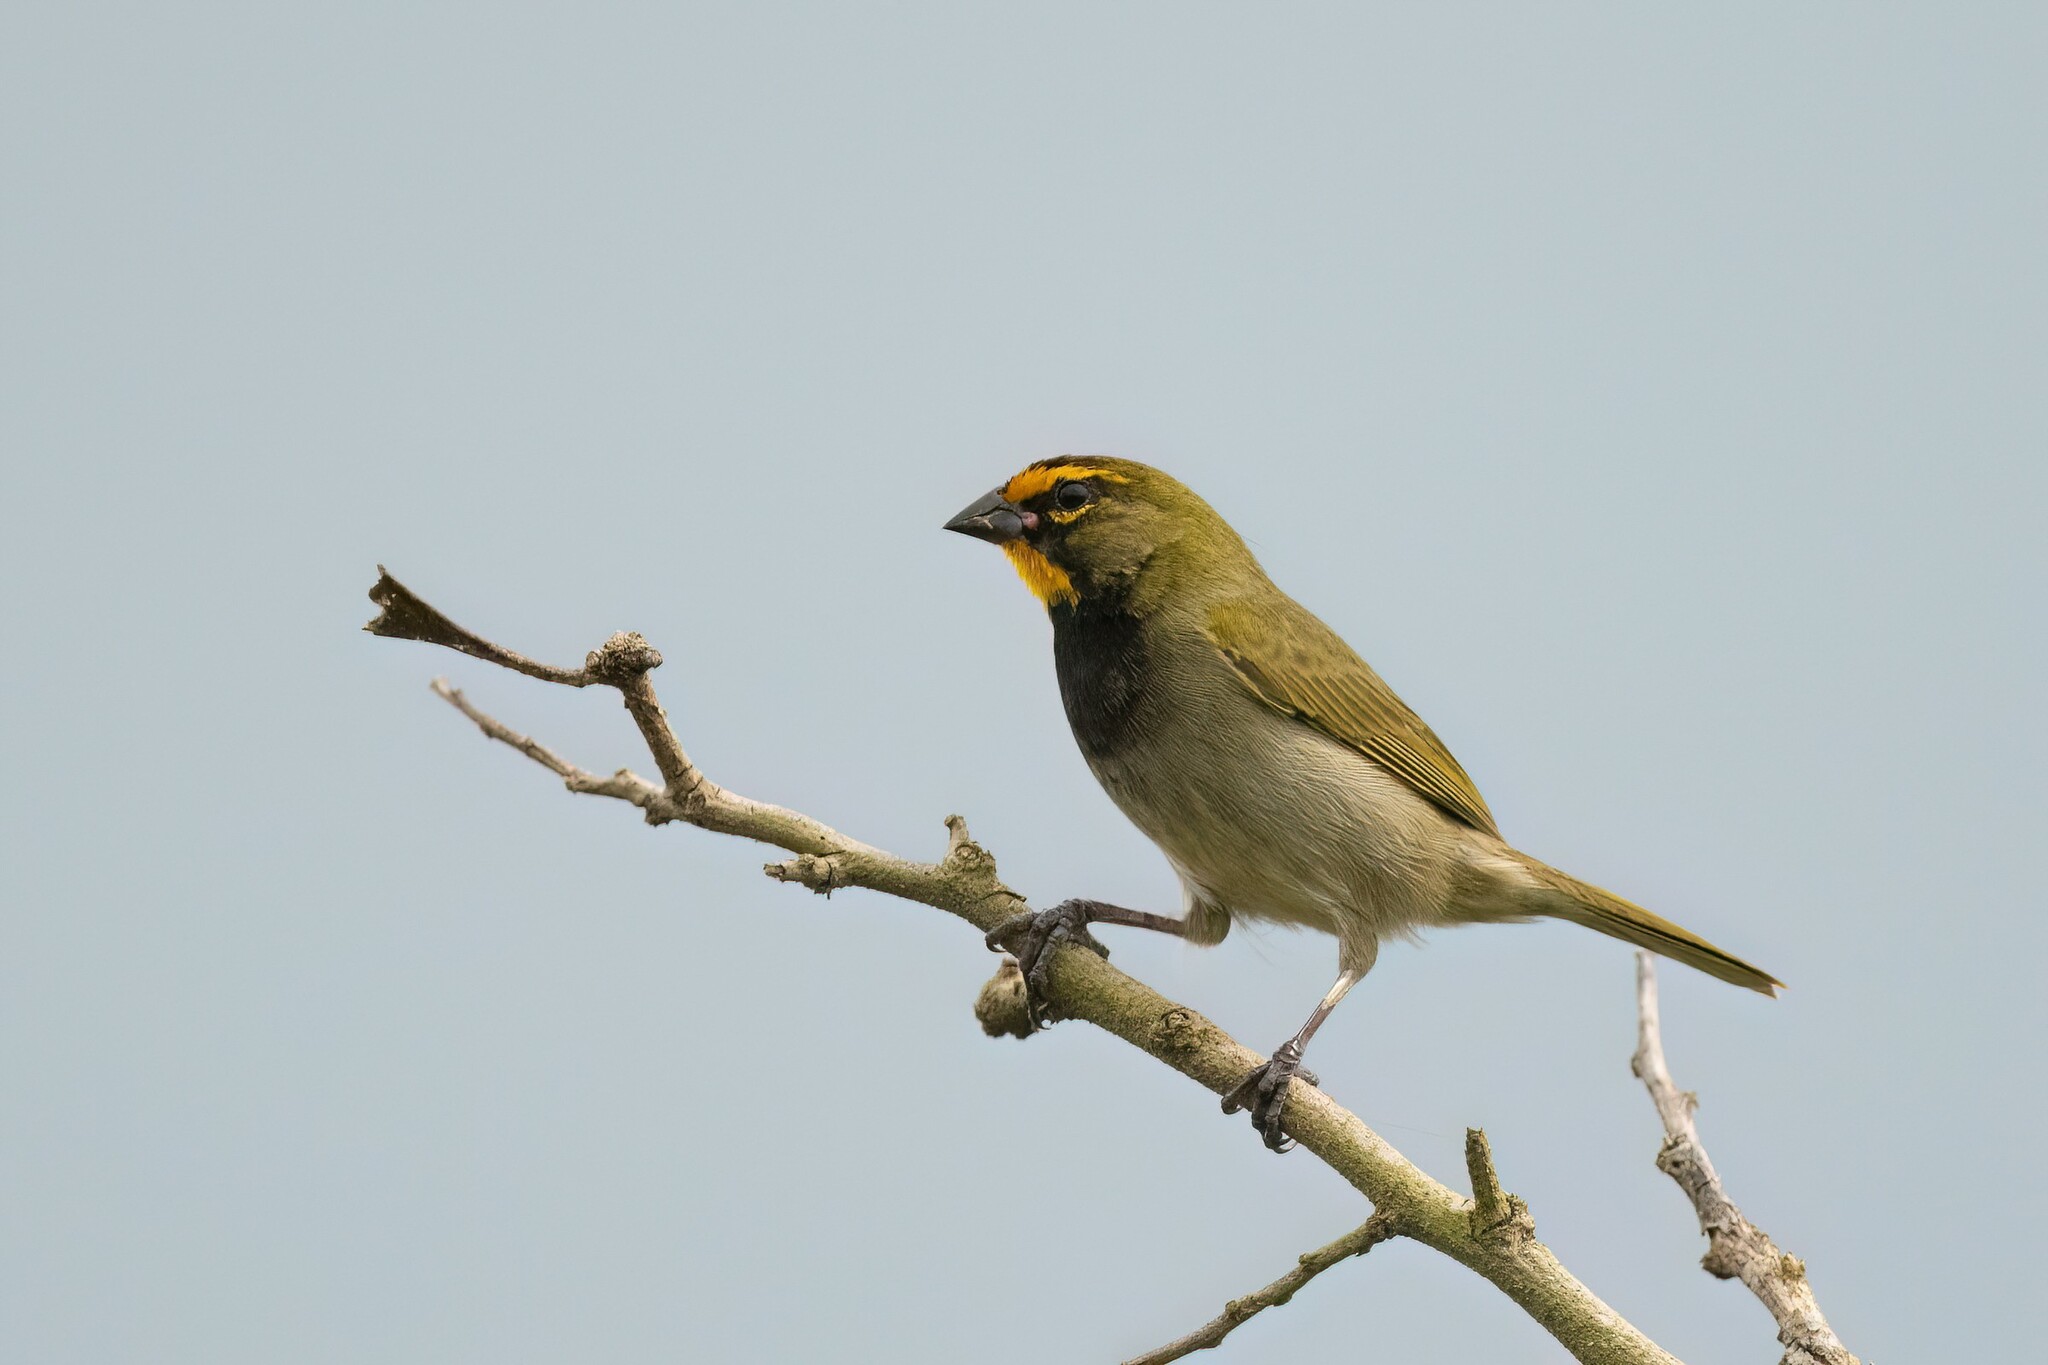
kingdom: Animalia
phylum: Chordata
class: Aves
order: Passeriformes
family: Thraupidae
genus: Tiaris
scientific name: Tiaris olivaceus
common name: Yellow-faced grassquit
